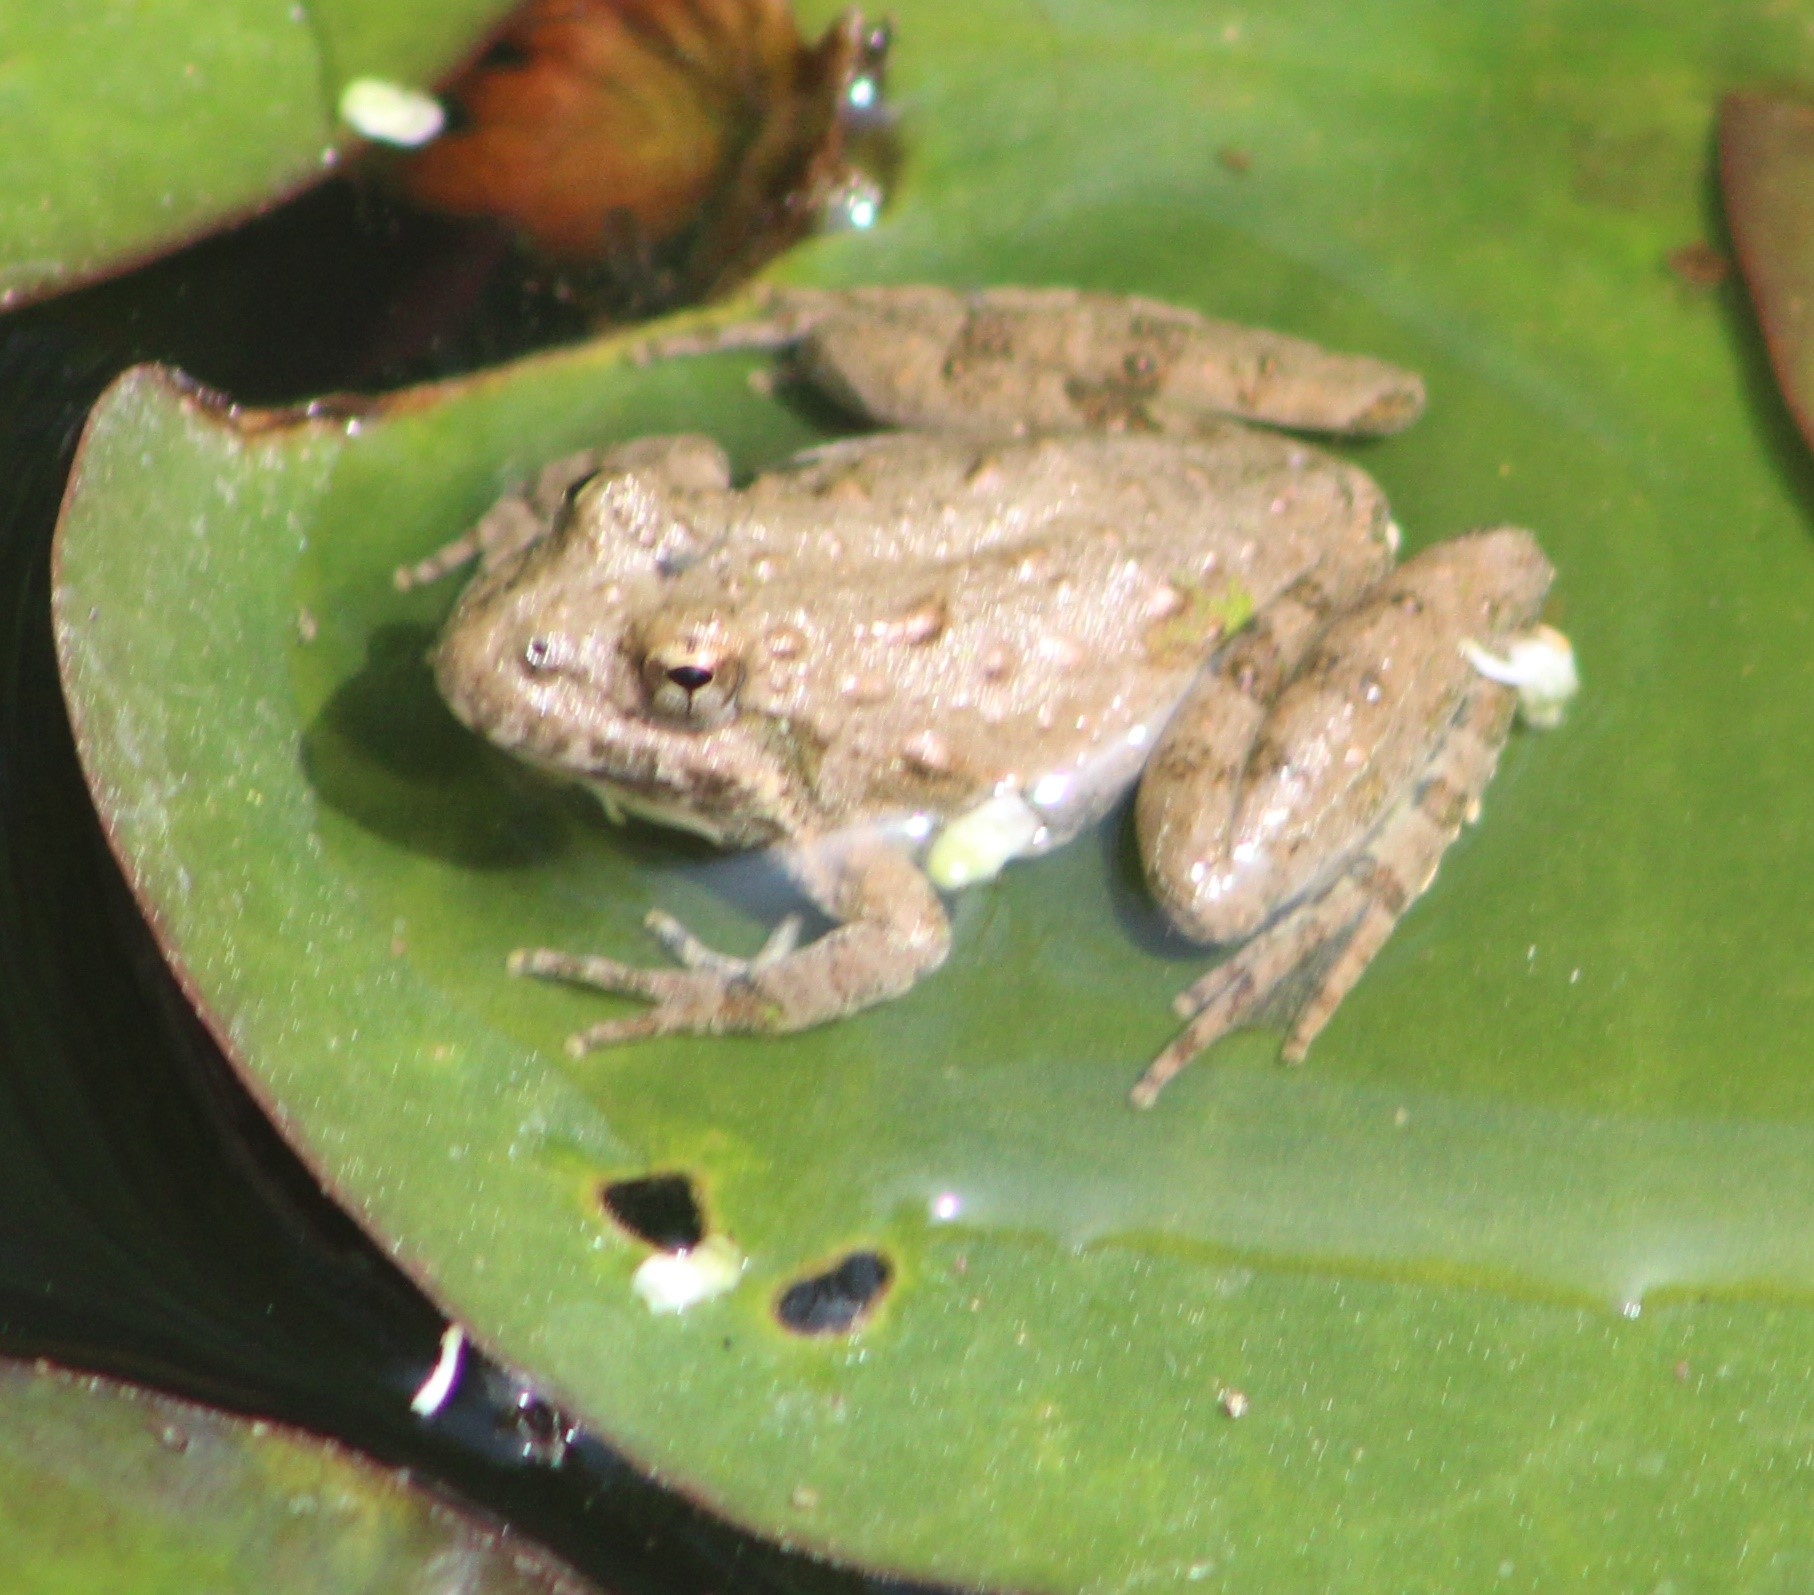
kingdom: Animalia
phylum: Chordata
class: Amphibia
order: Anura
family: Hylidae
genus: Acris
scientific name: Acris blanchardi
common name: Blanchard's cricket frog
